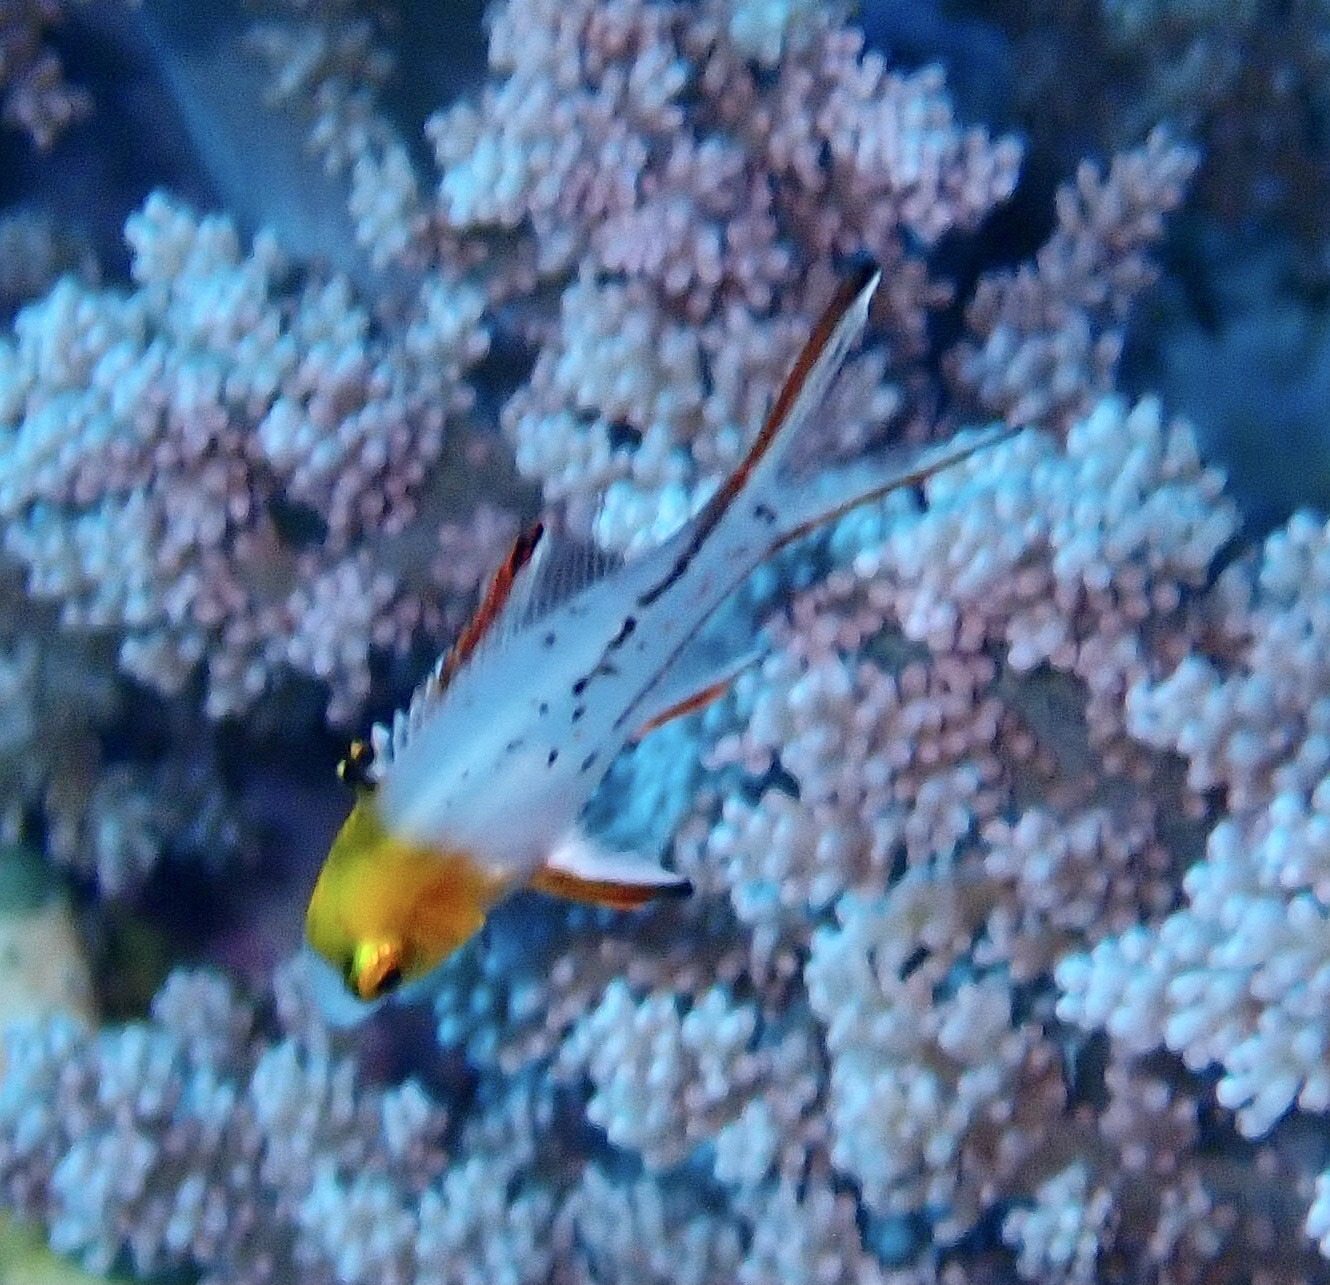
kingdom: Animalia
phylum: Chordata
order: Perciformes
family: Labridae
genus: Bodianus
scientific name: Bodianus anthioides
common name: Lyretail hogfish
